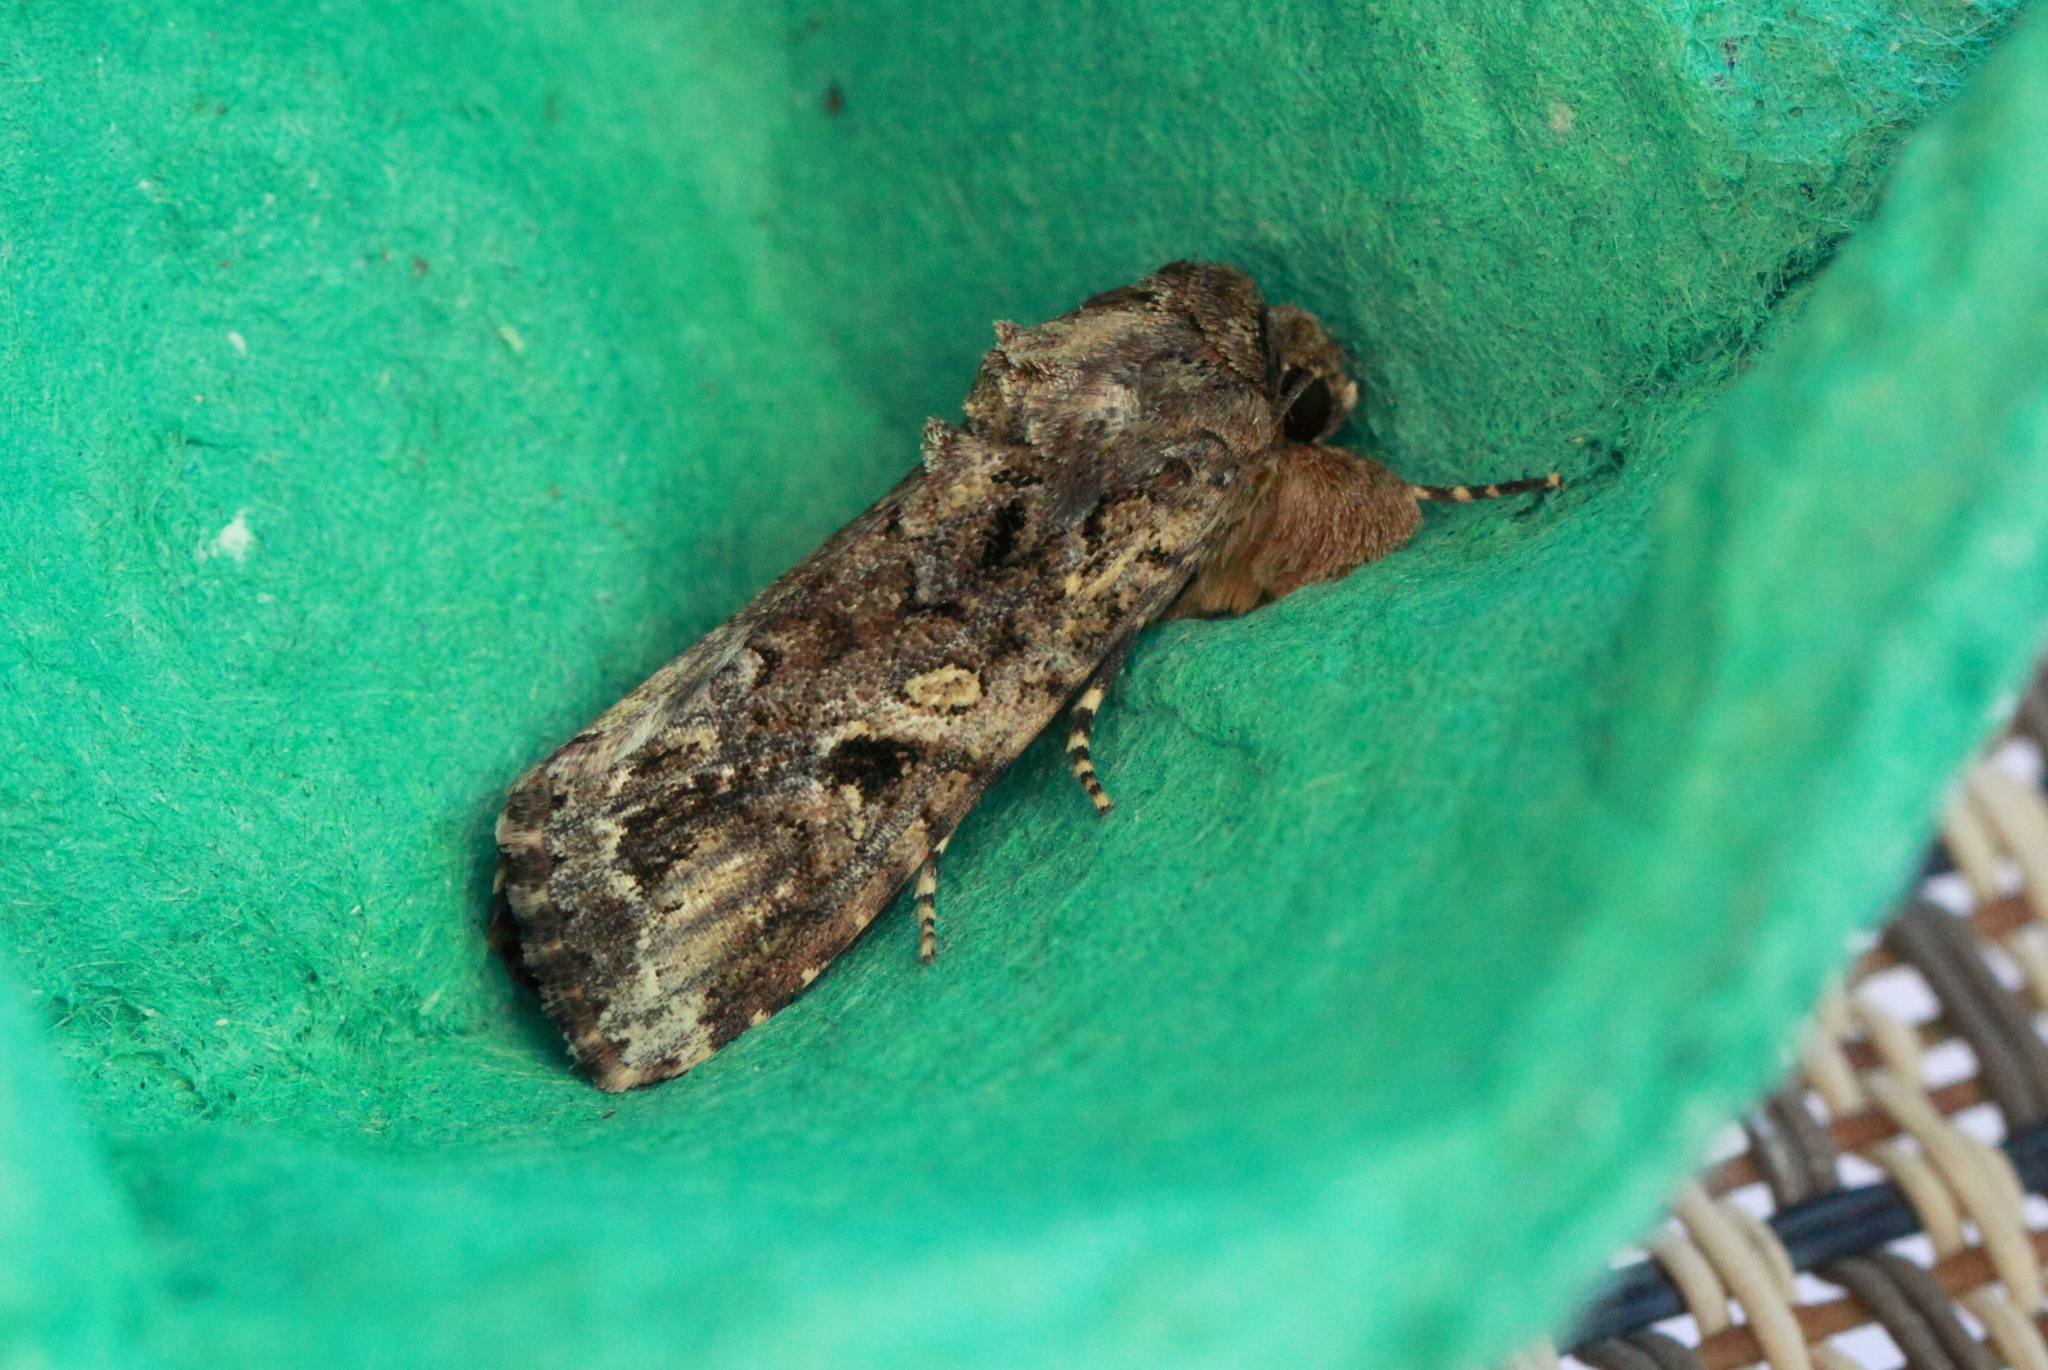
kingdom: Animalia
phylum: Arthropoda
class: Insecta
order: Lepidoptera
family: Noctuidae
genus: Spodoptera
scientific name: Spodoptera mauritia
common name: Lawn armyworm
